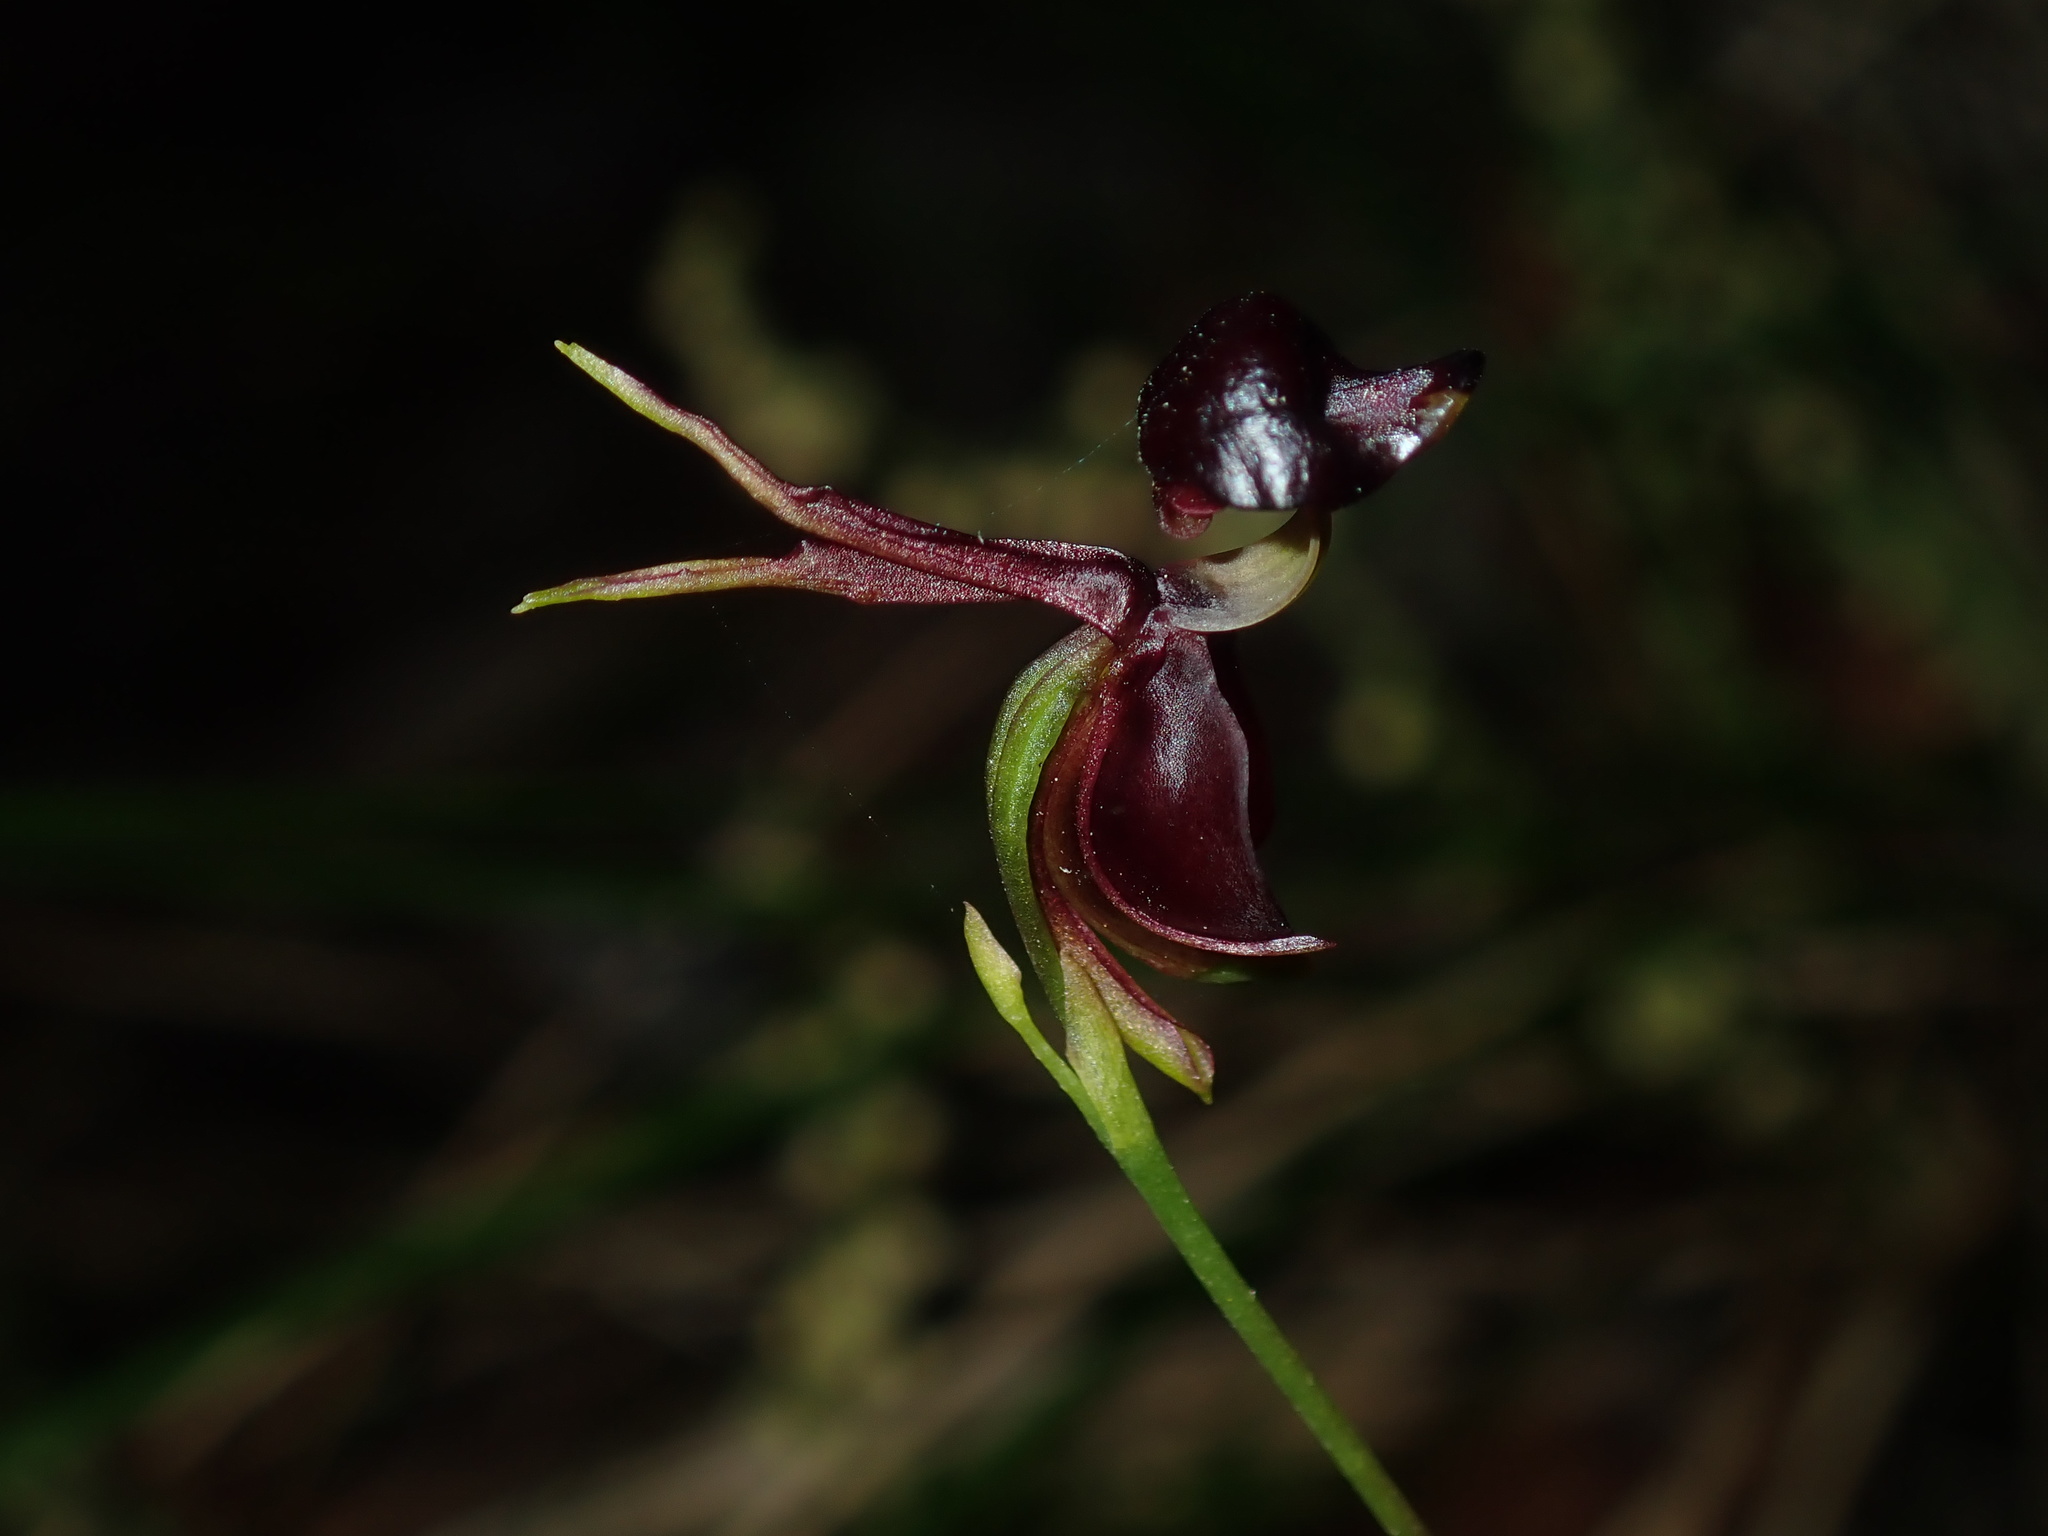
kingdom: Plantae
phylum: Tracheophyta
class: Liliopsida
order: Asparagales
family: Orchidaceae
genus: Caleana
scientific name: Caleana major
